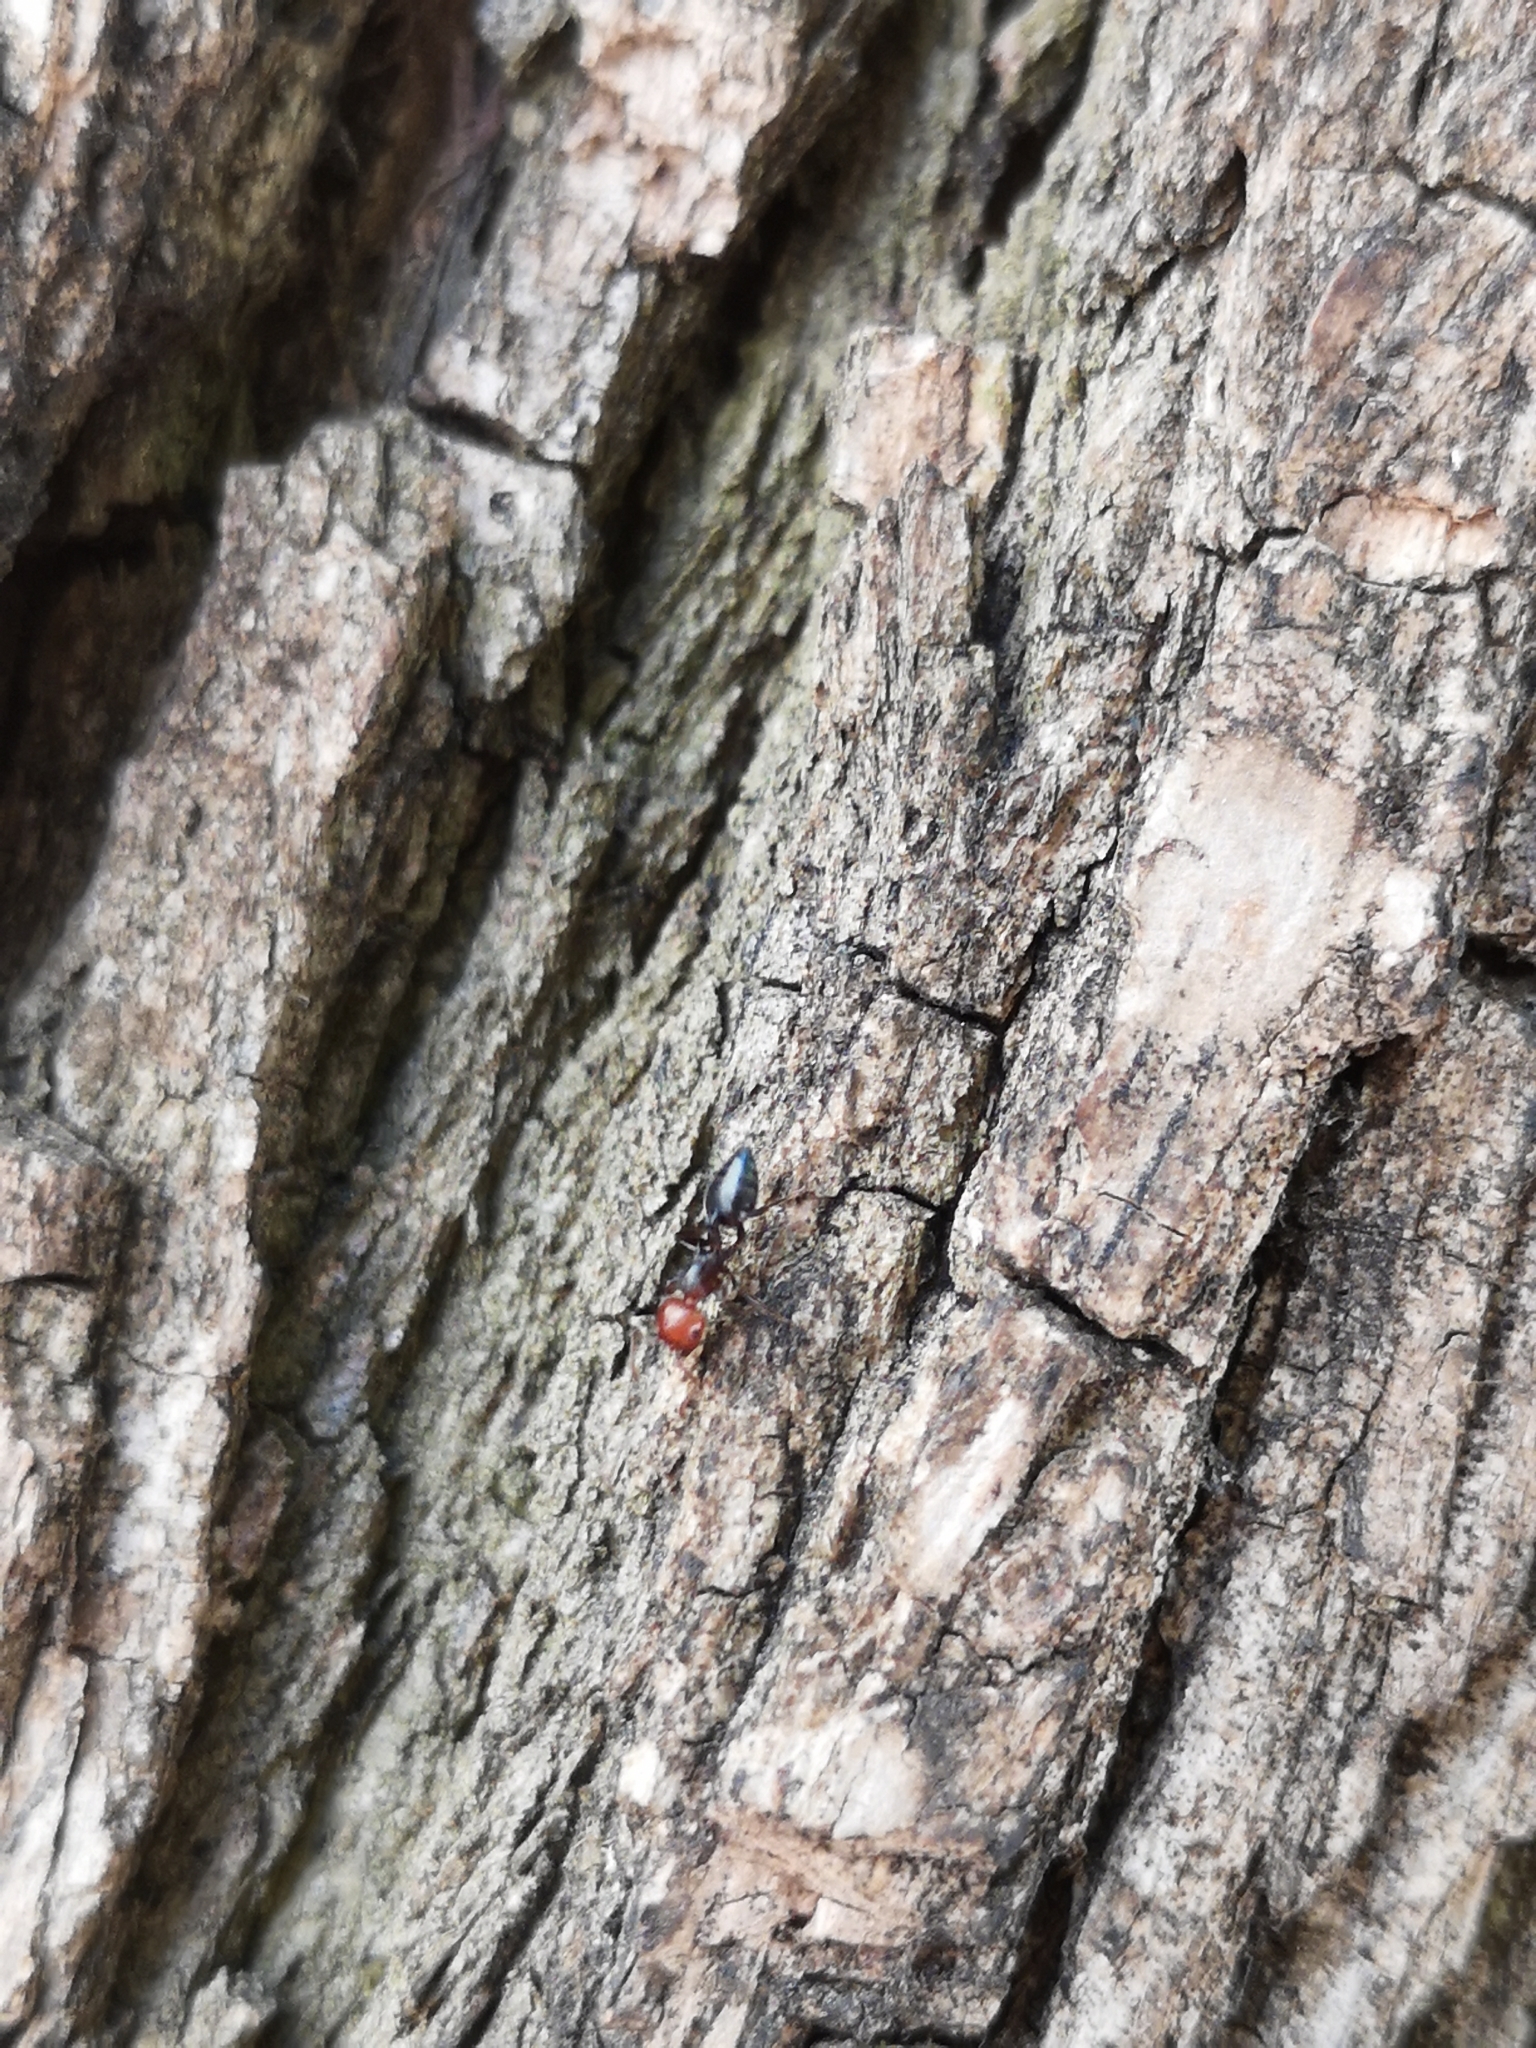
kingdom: Animalia
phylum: Arthropoda
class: Insecta
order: Hymenoptera
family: Formicidae
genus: Crematogaster
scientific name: Crematogaster scutellaris
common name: Fourmi du liège
